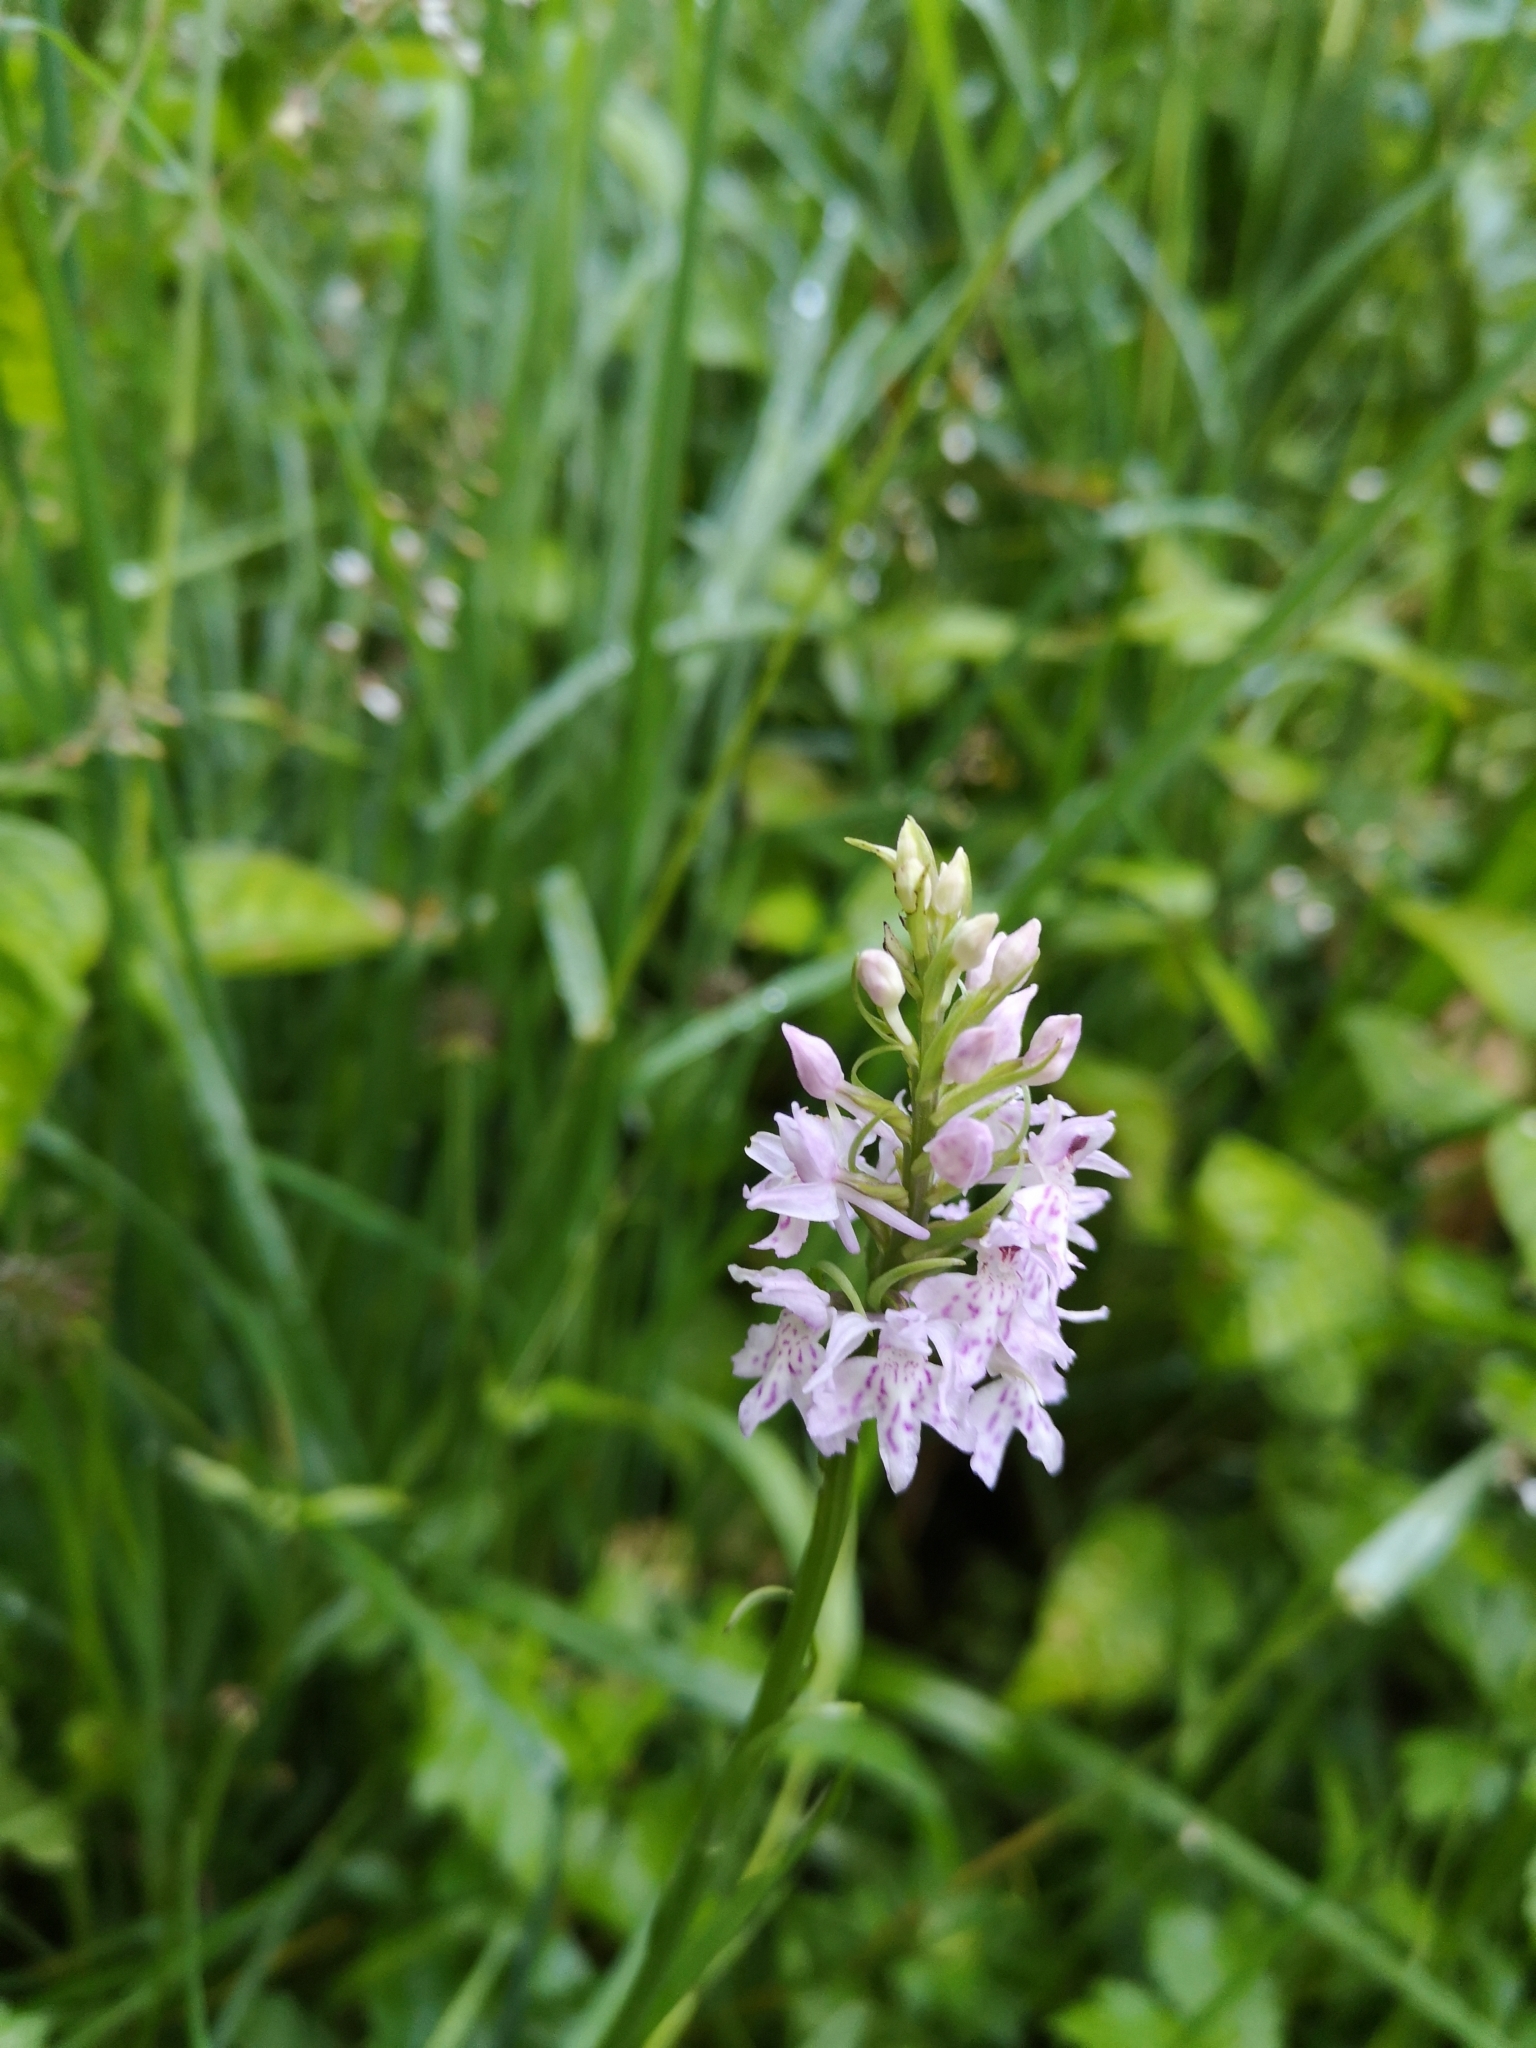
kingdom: Plantae
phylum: Tracheophyta
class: Liliopsida
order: Asparagales
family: Orchidaceae
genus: Dactylorhiza
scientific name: Dactylorhiza maculata
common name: Heath spotted-orchid
